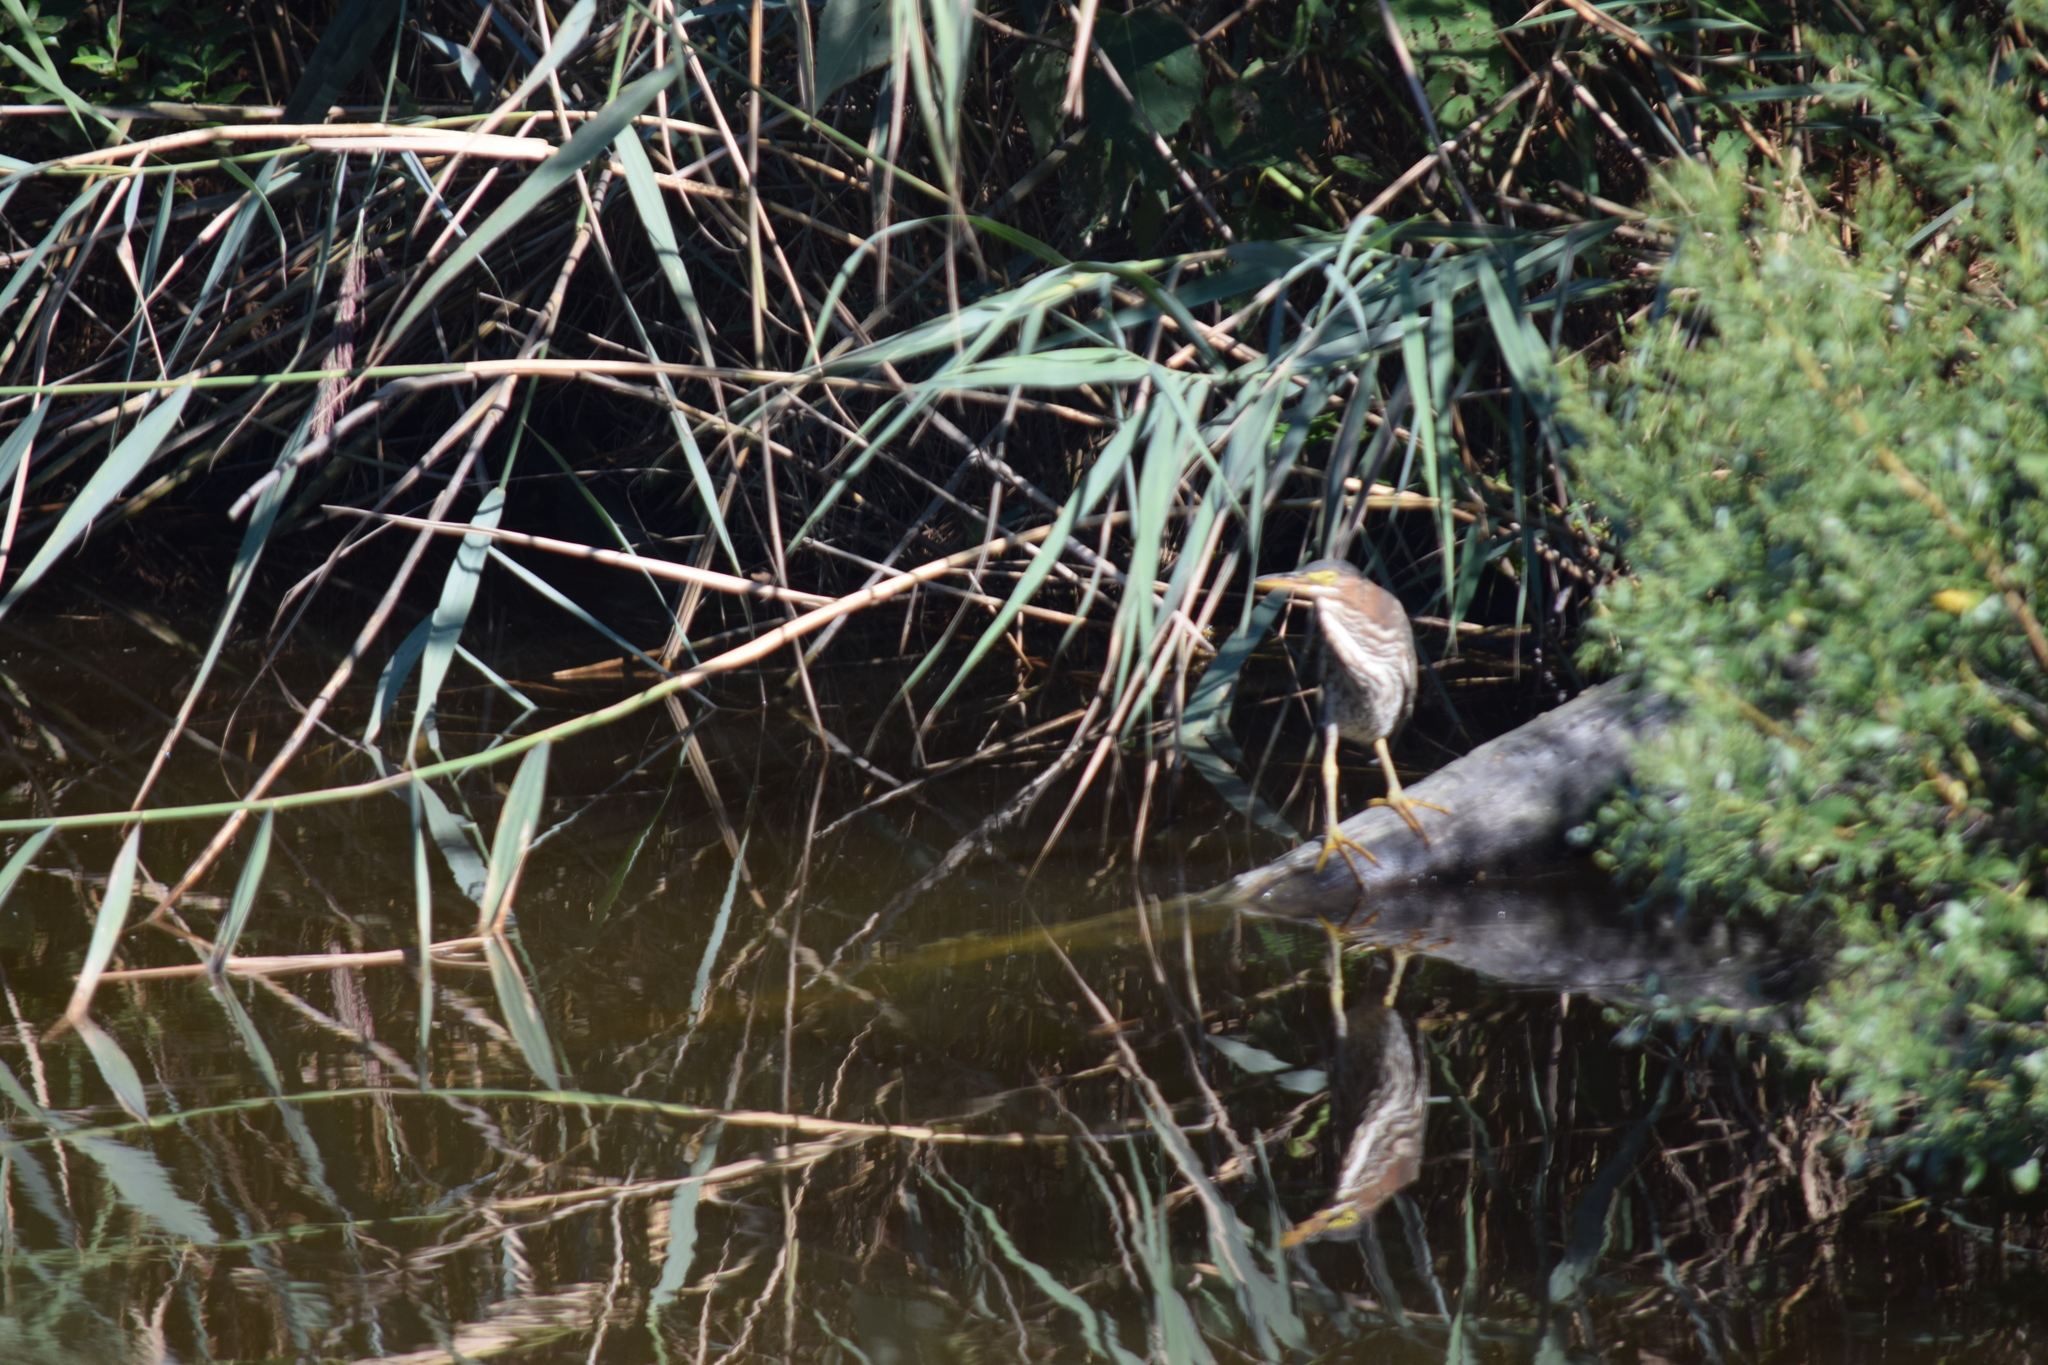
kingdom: Animalia
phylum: Chordata
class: Aves
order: Pelecaniformes
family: Ardeidae
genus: Butorides
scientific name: Butorides virescens
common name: Green heron
